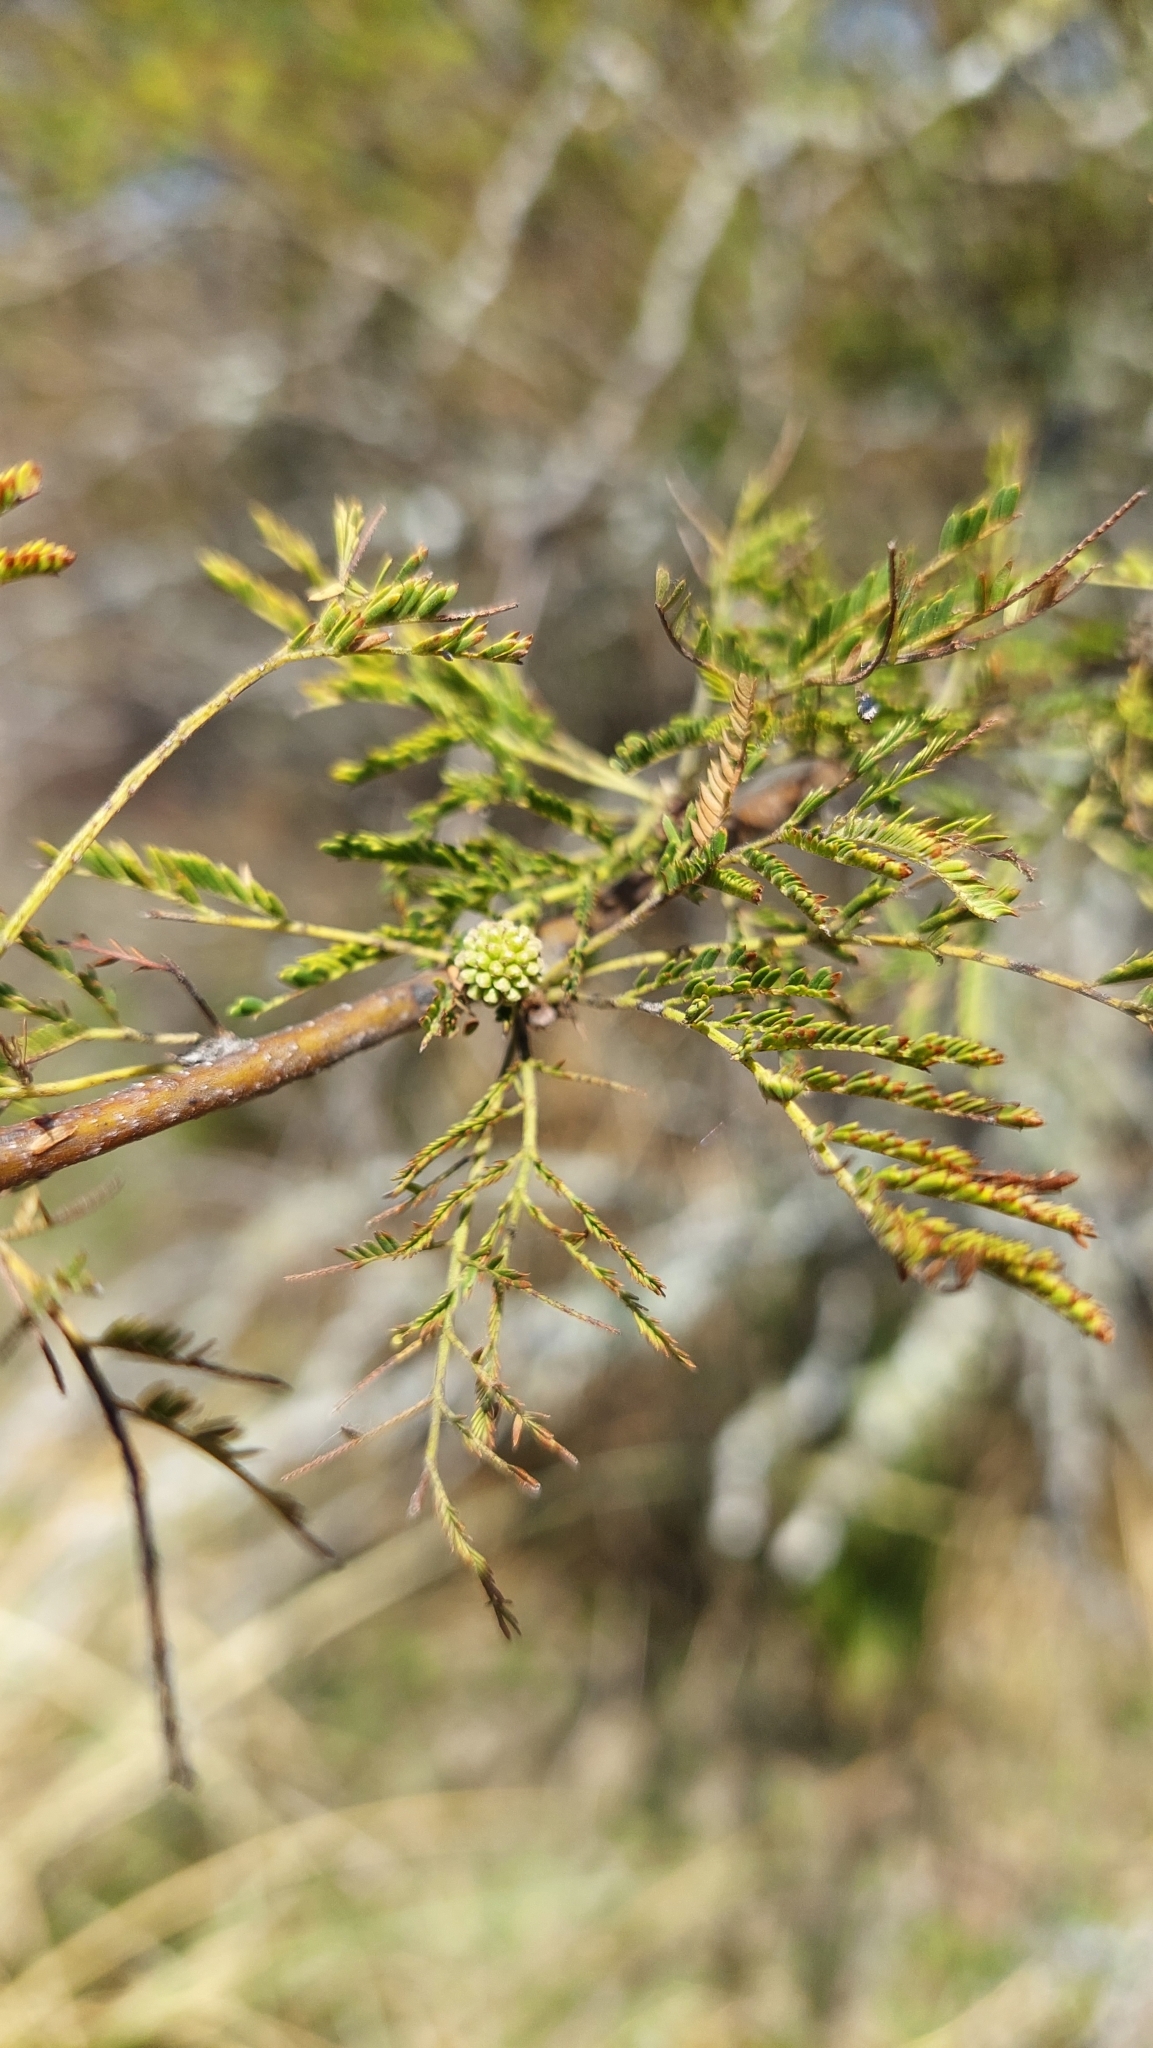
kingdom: Plantae
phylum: Tracheophyta
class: Magnoliopsida
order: Fabales
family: Fabaceae
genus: Vachellia
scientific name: Vachellia caven
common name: Roman cassie
